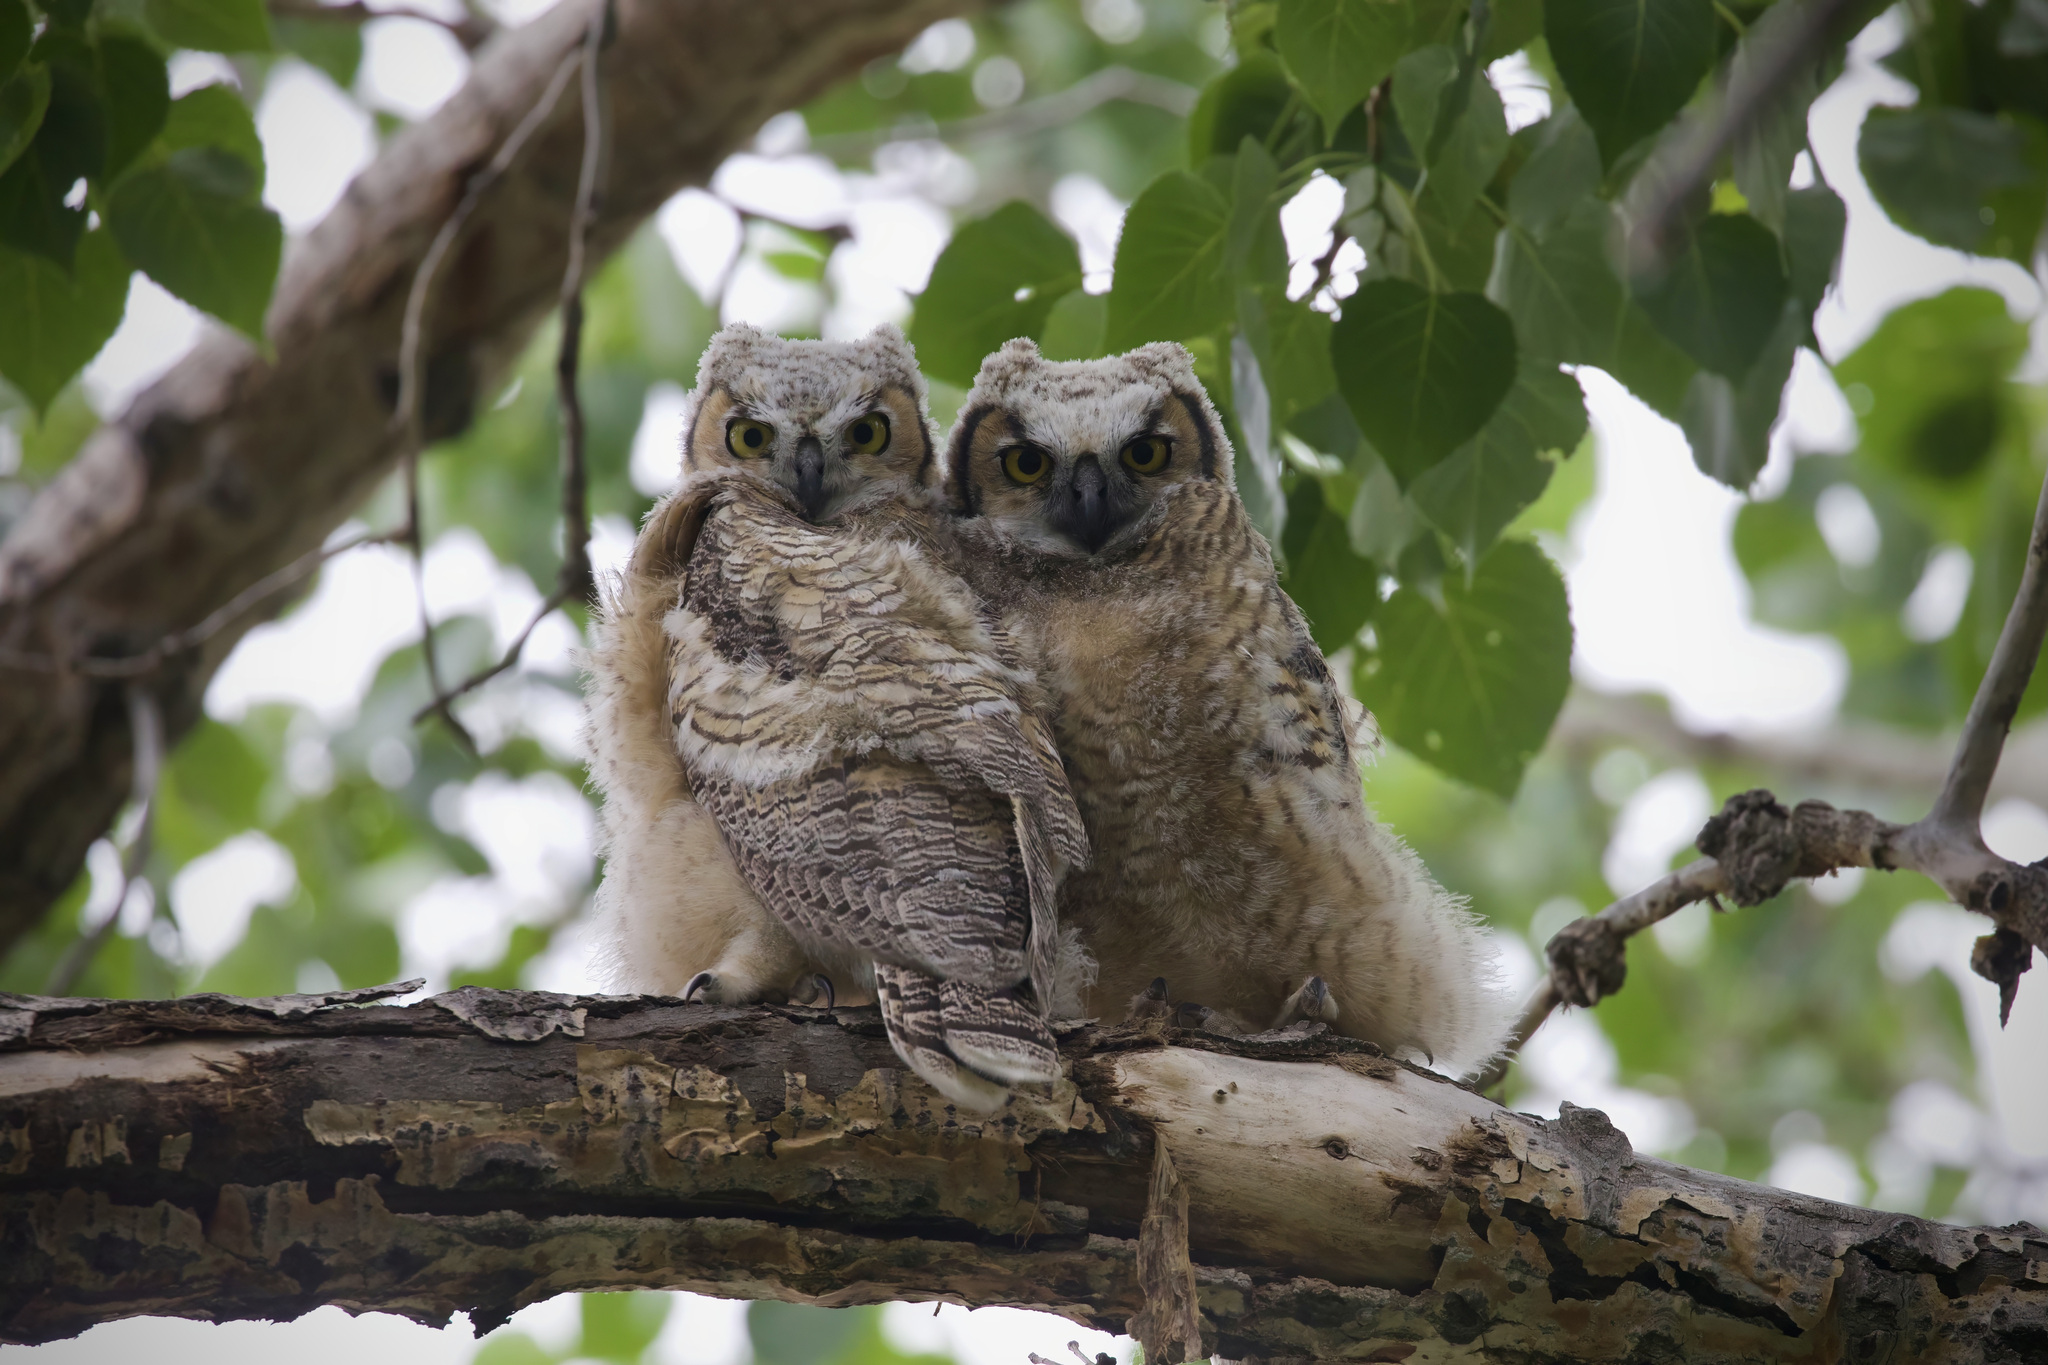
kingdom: Animalia
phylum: Chordata
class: Aves
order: Strigiformes
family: Strigidae
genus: Bubo
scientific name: Bubo virginianus
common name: Great horned owl
